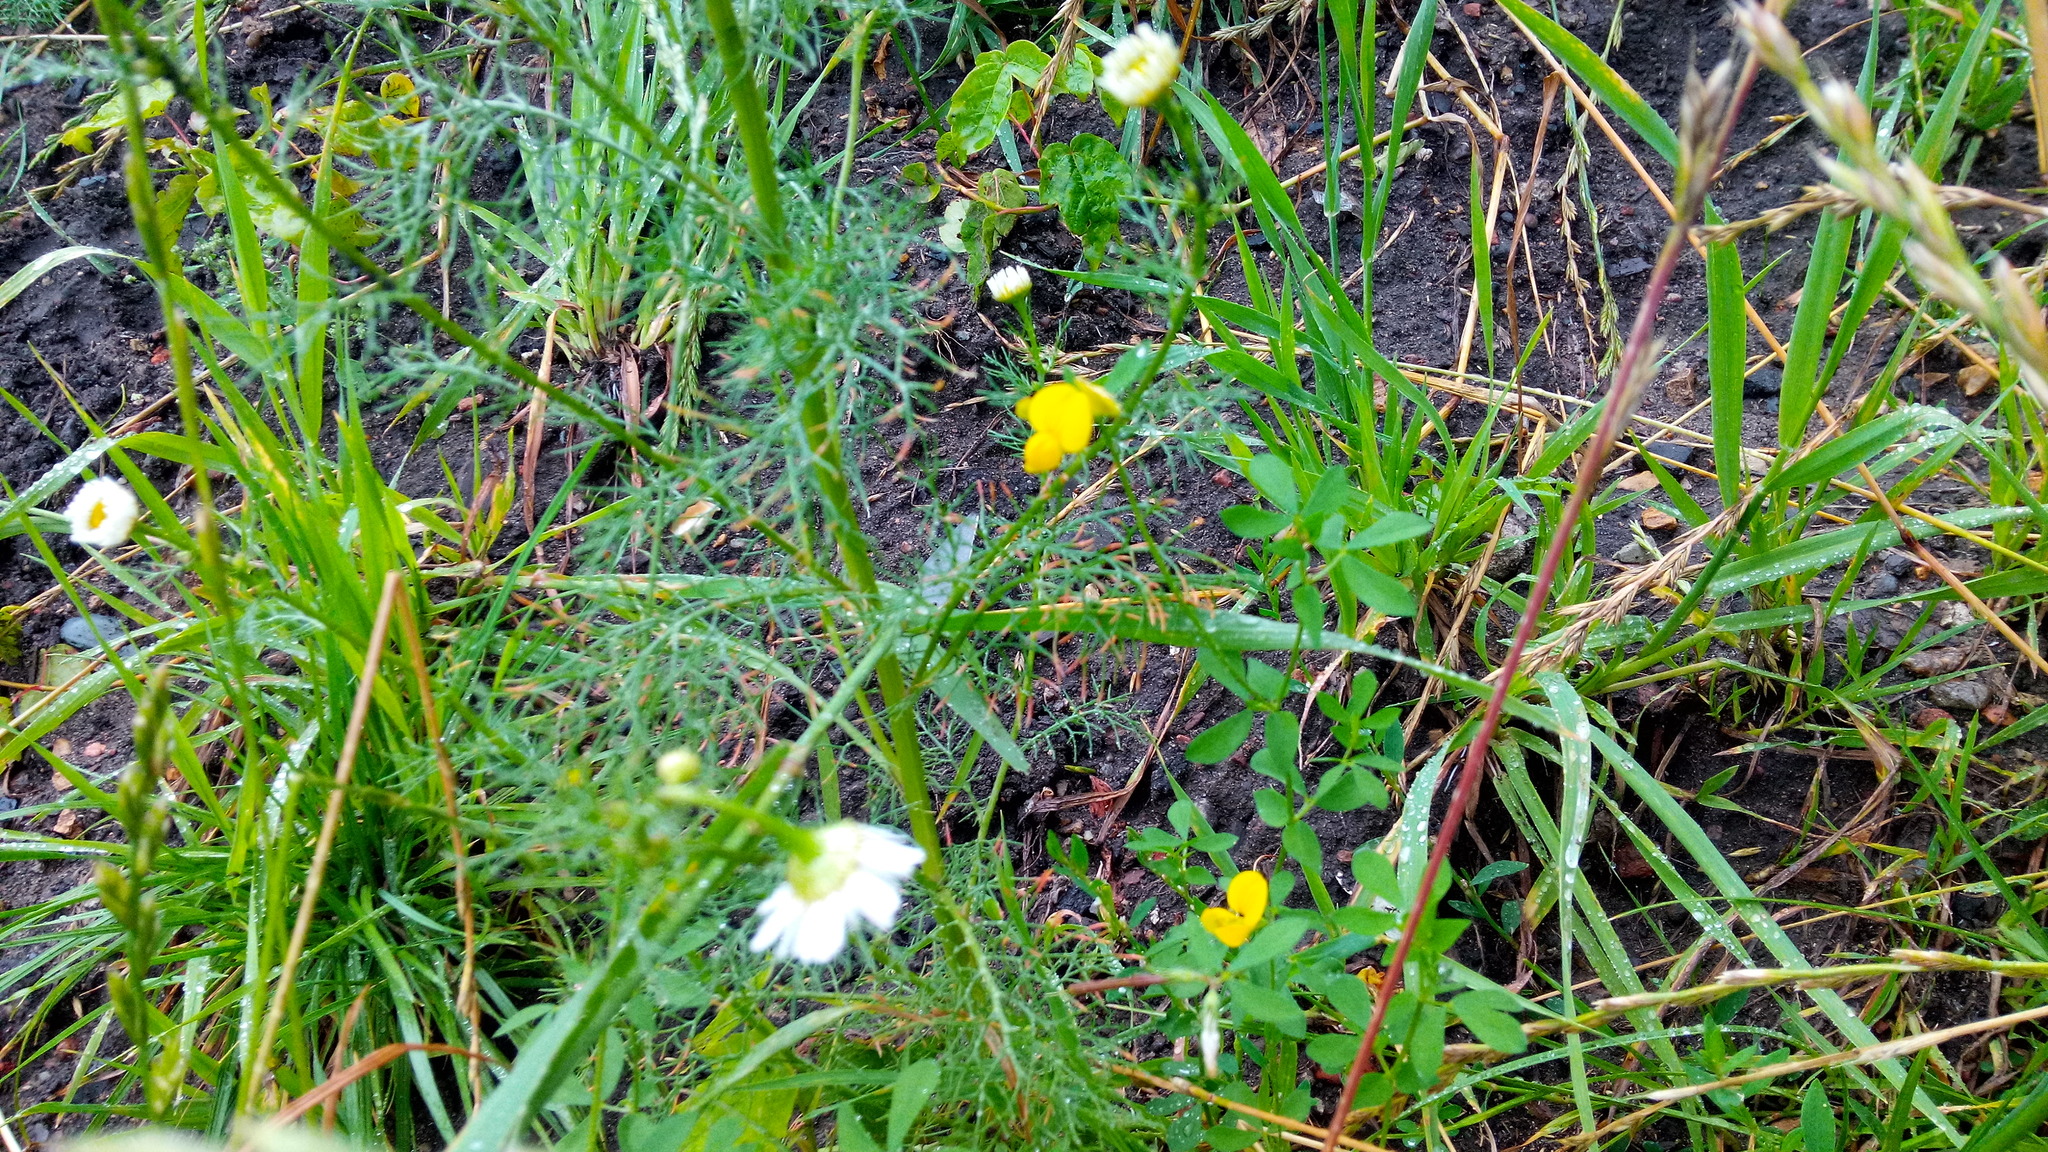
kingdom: Plantae
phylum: Tracheophyta
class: Magnoliopsida
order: Fabales
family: Fabaceae
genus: Lotus
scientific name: Lotus corniculatus
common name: Common bird's-foot-trefoil
